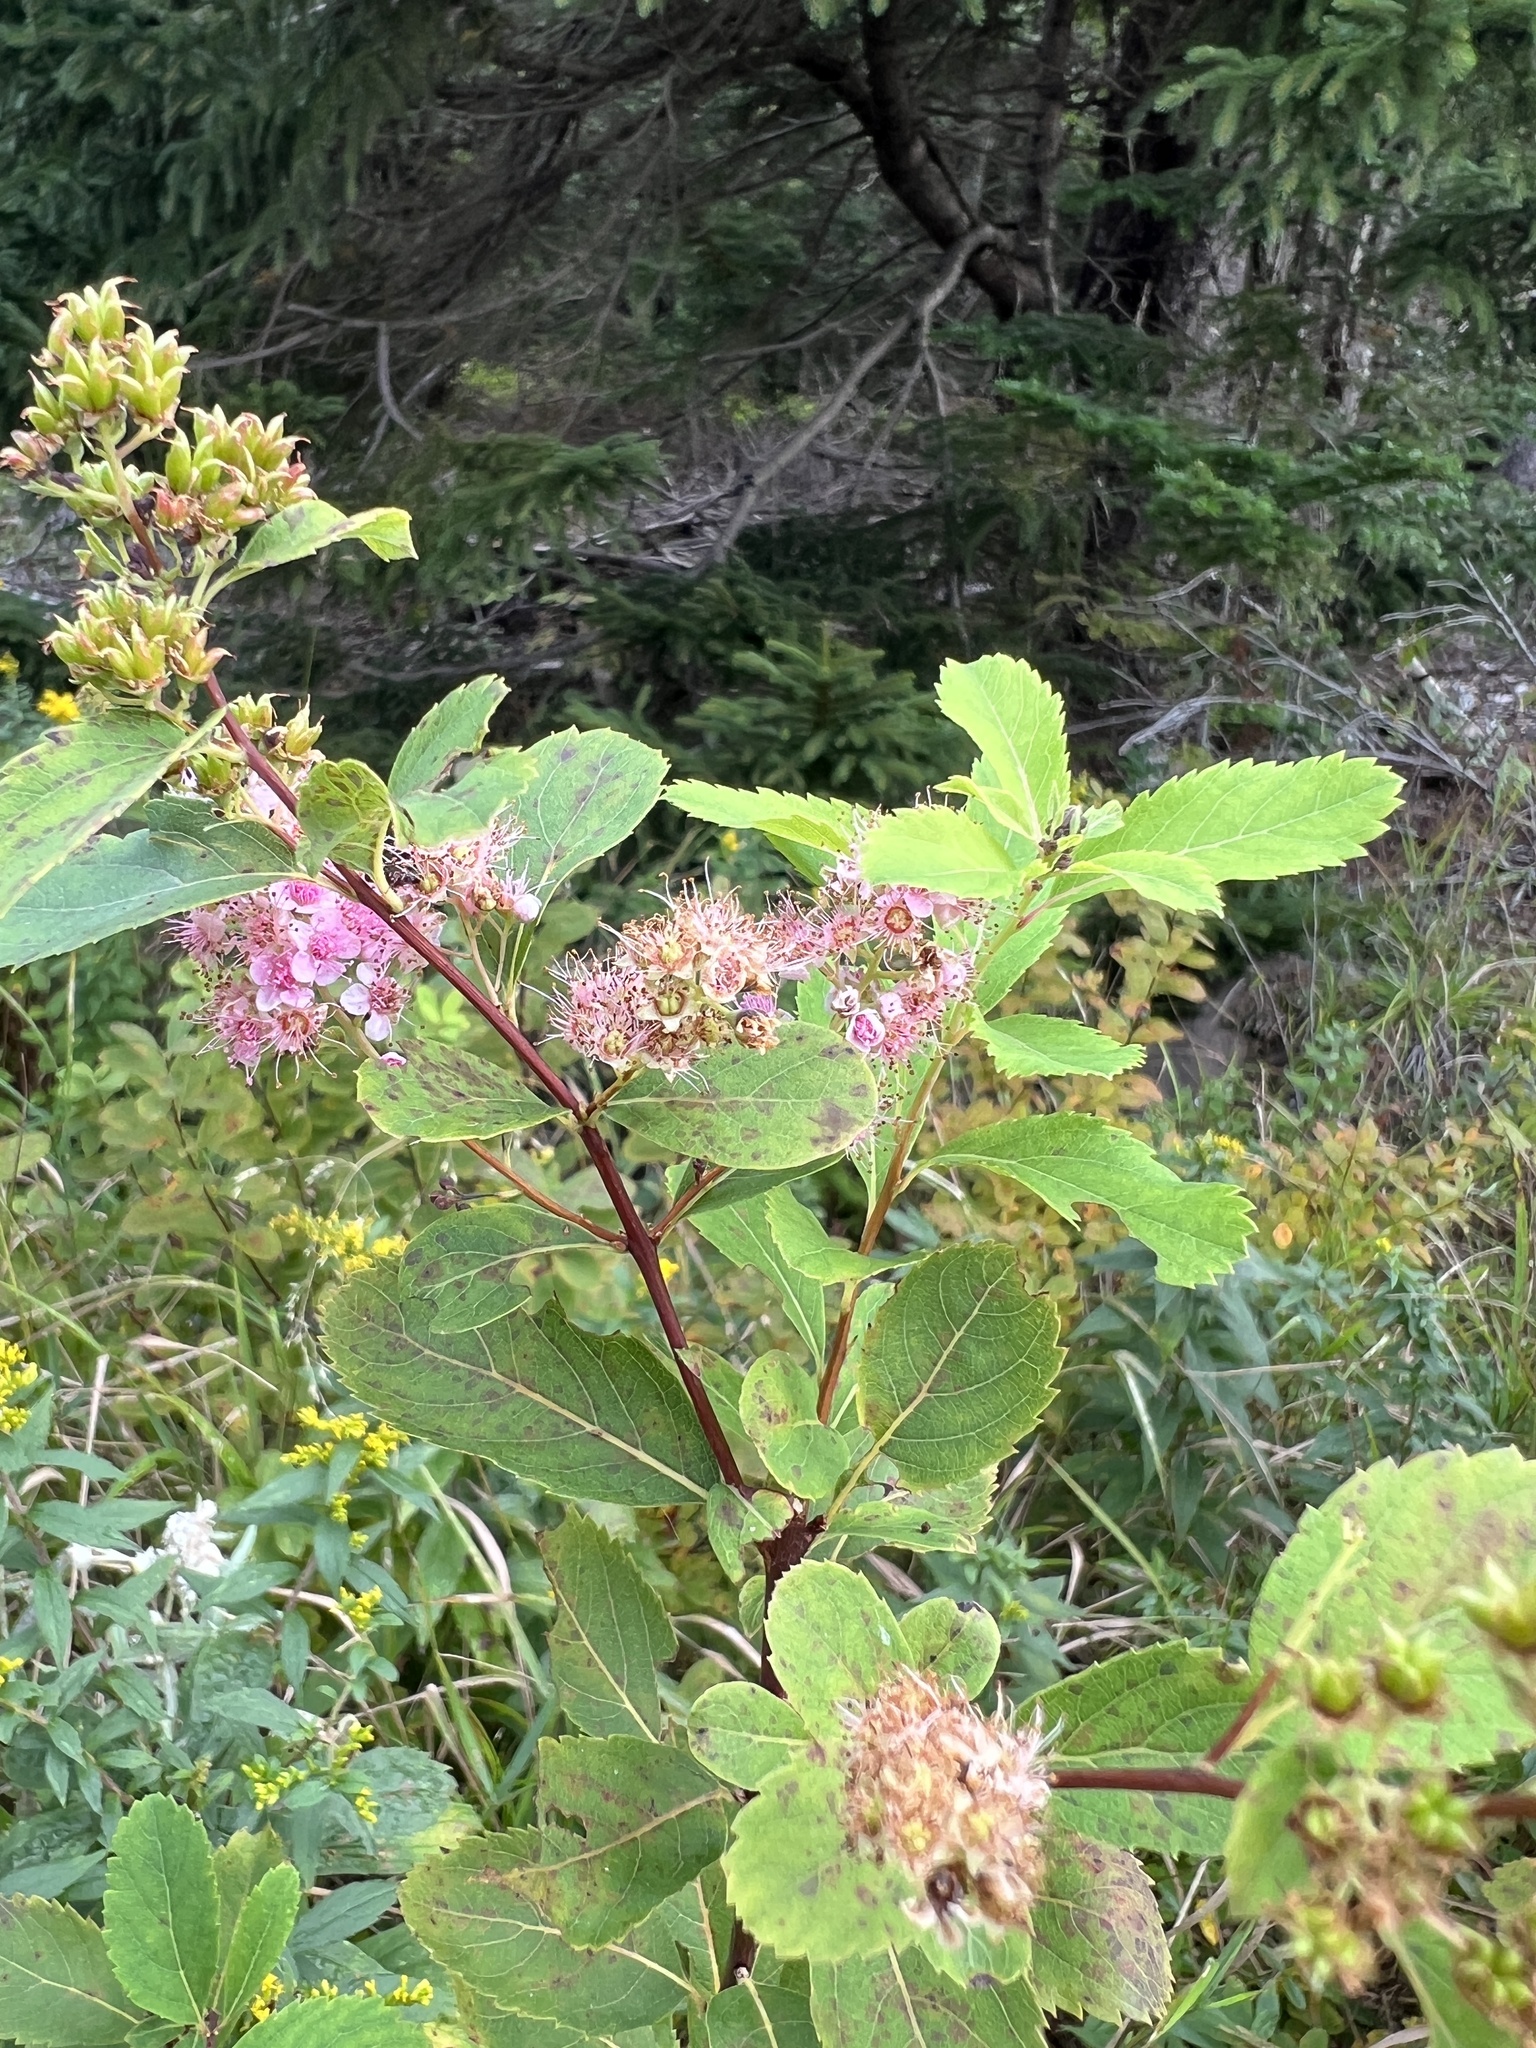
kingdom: Plantae
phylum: Tracheophyta
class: Magnoliopsida
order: Rosales
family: Rosaceae
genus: Spiraea
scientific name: Spiraea alba
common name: Pale bridewort
